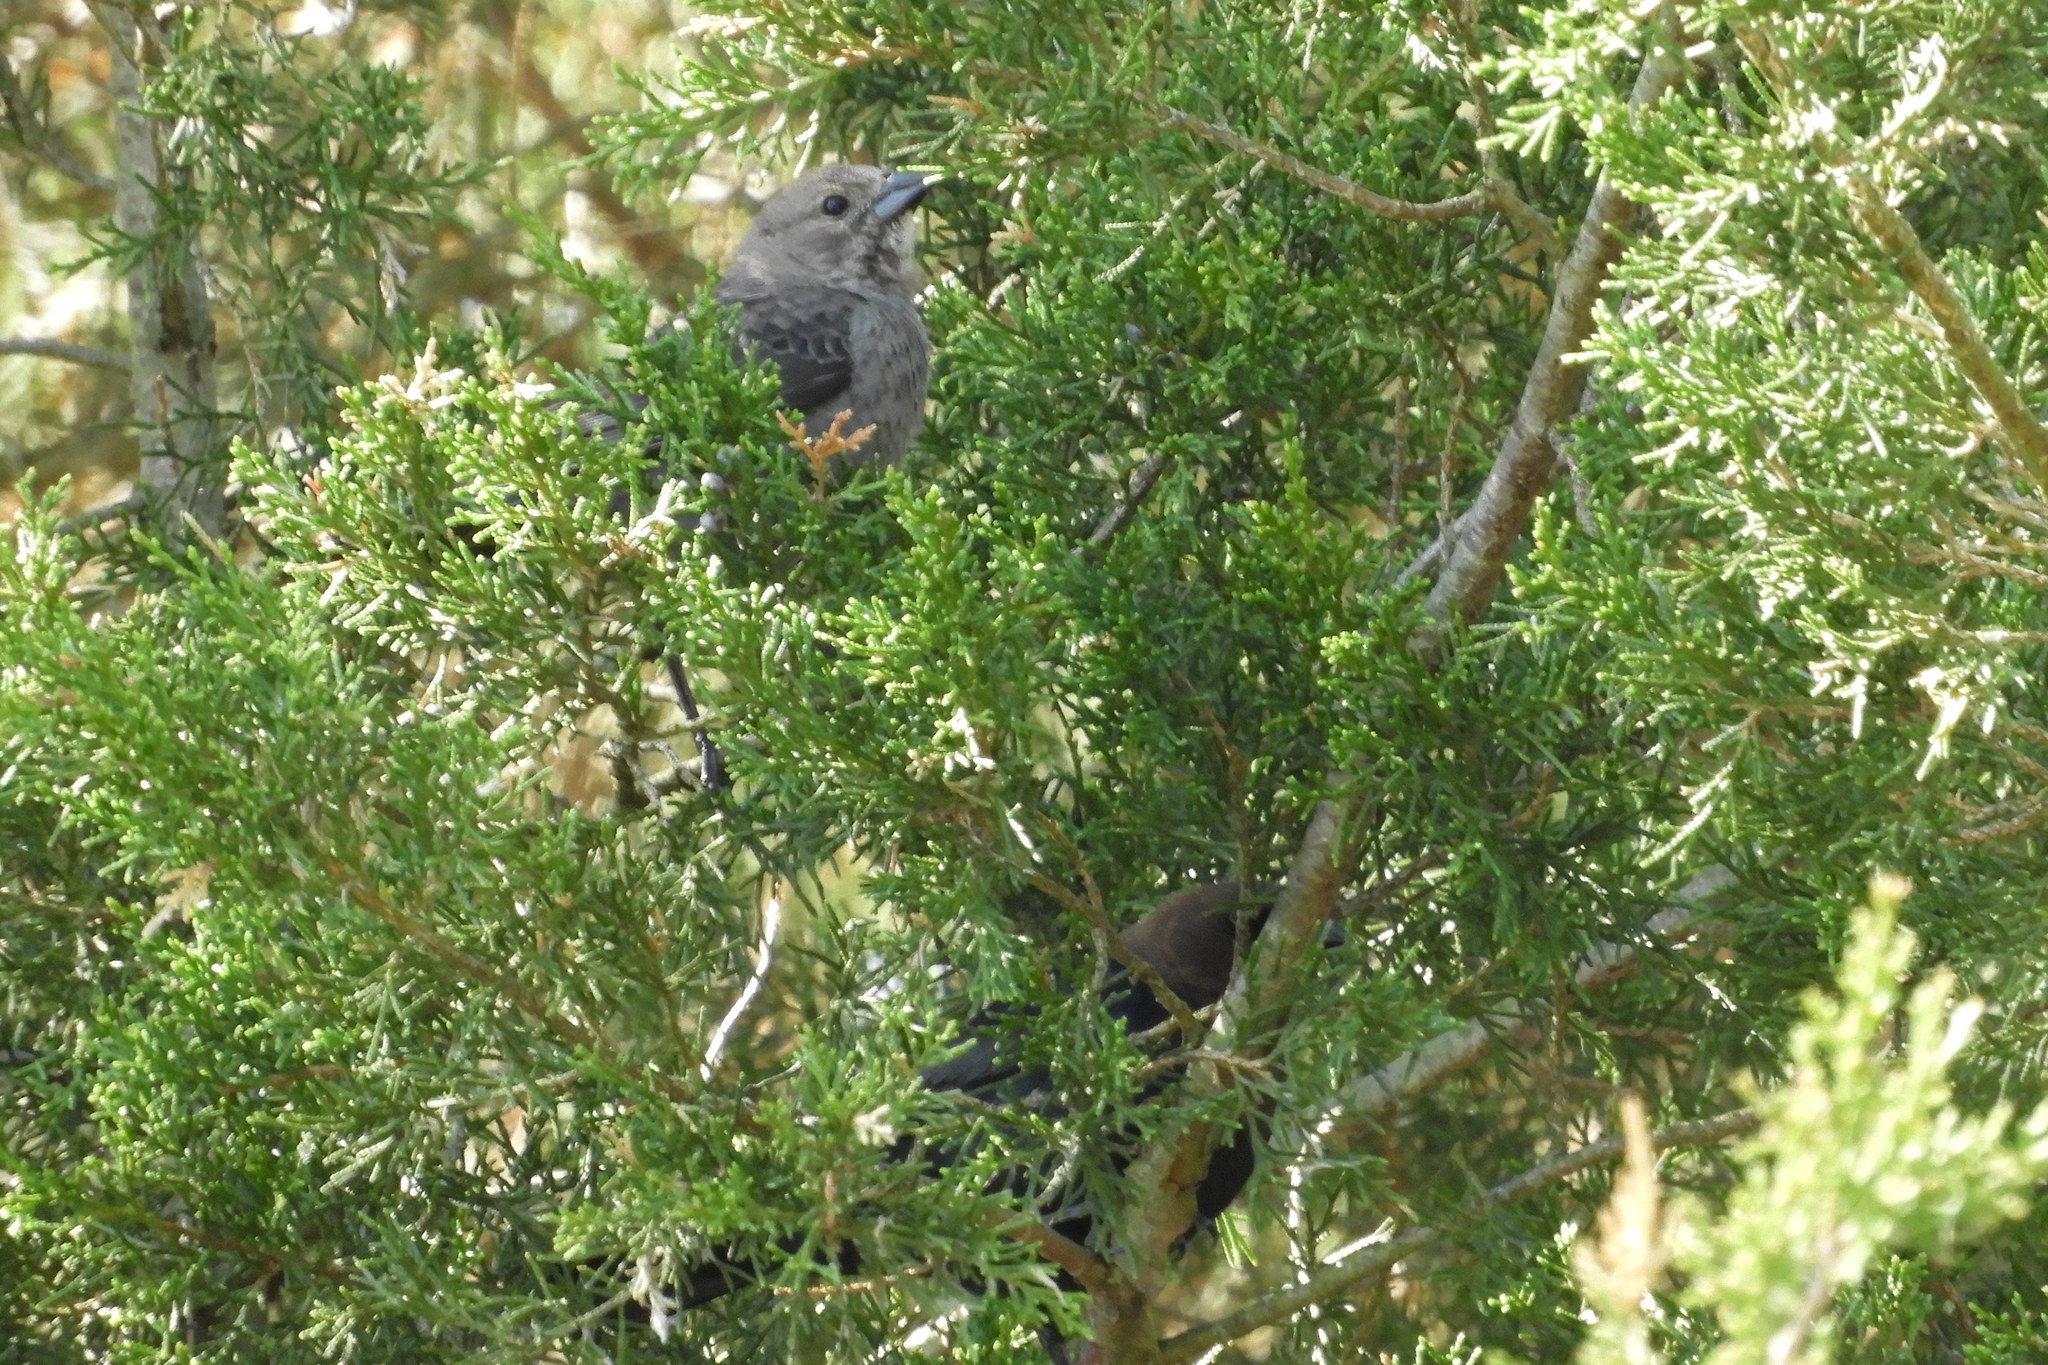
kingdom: Animalia
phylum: Chordata
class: Aves
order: Passeriformes
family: Icteridae
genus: Molothrus
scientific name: Molothrus ater
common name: Brown-headed cowbird
